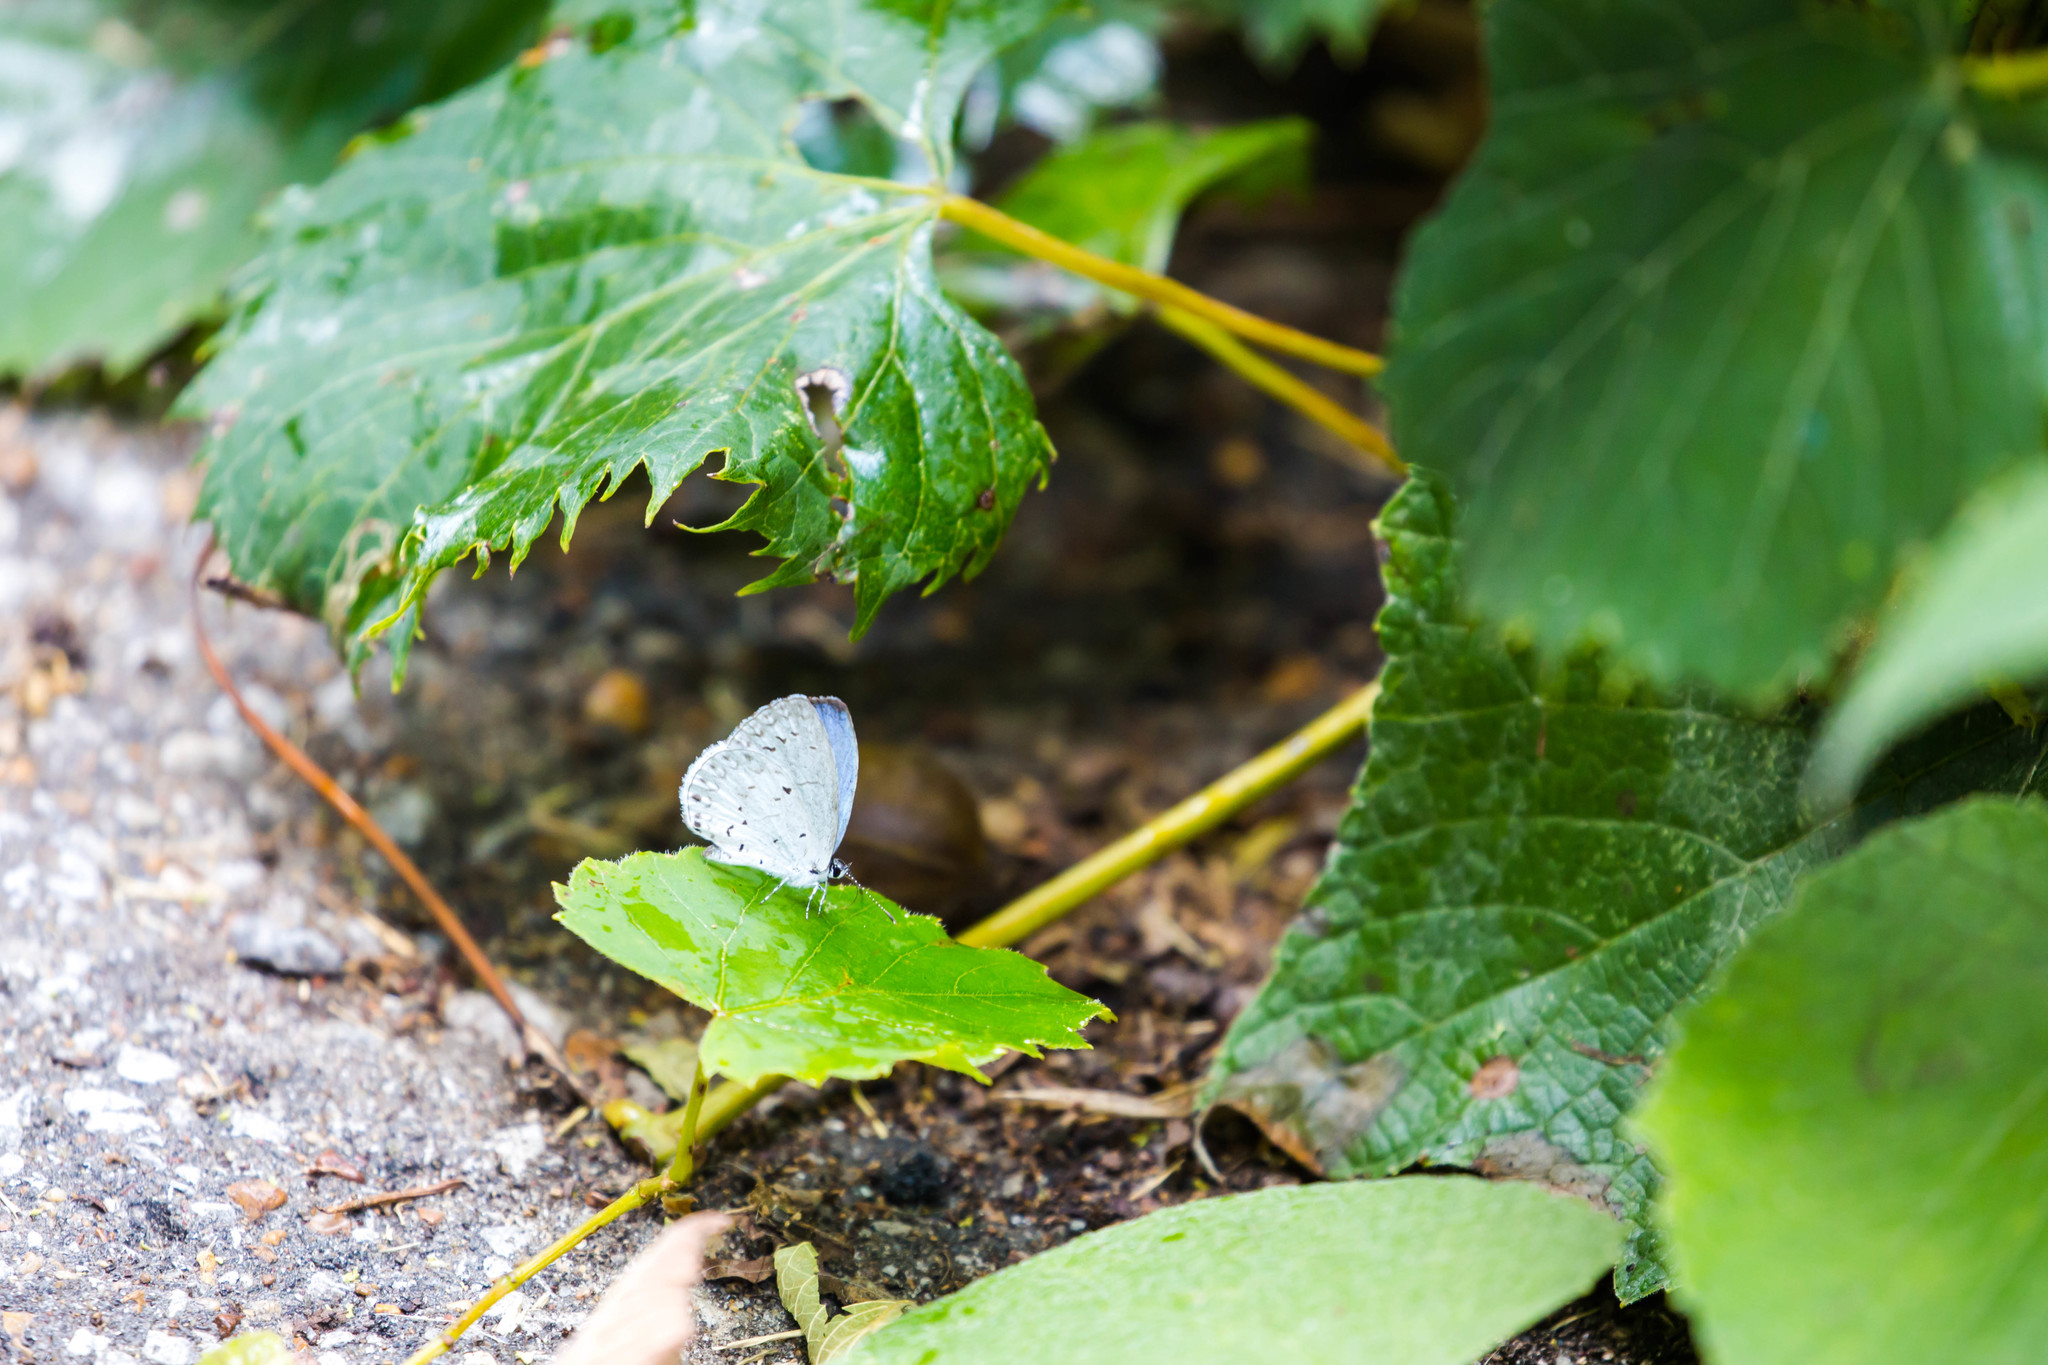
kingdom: Animalia
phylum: Arthropoda
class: Insecta
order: Lepidoptera
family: Lycaenidae
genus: Cyaniris
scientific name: Cyaniris neglecta
